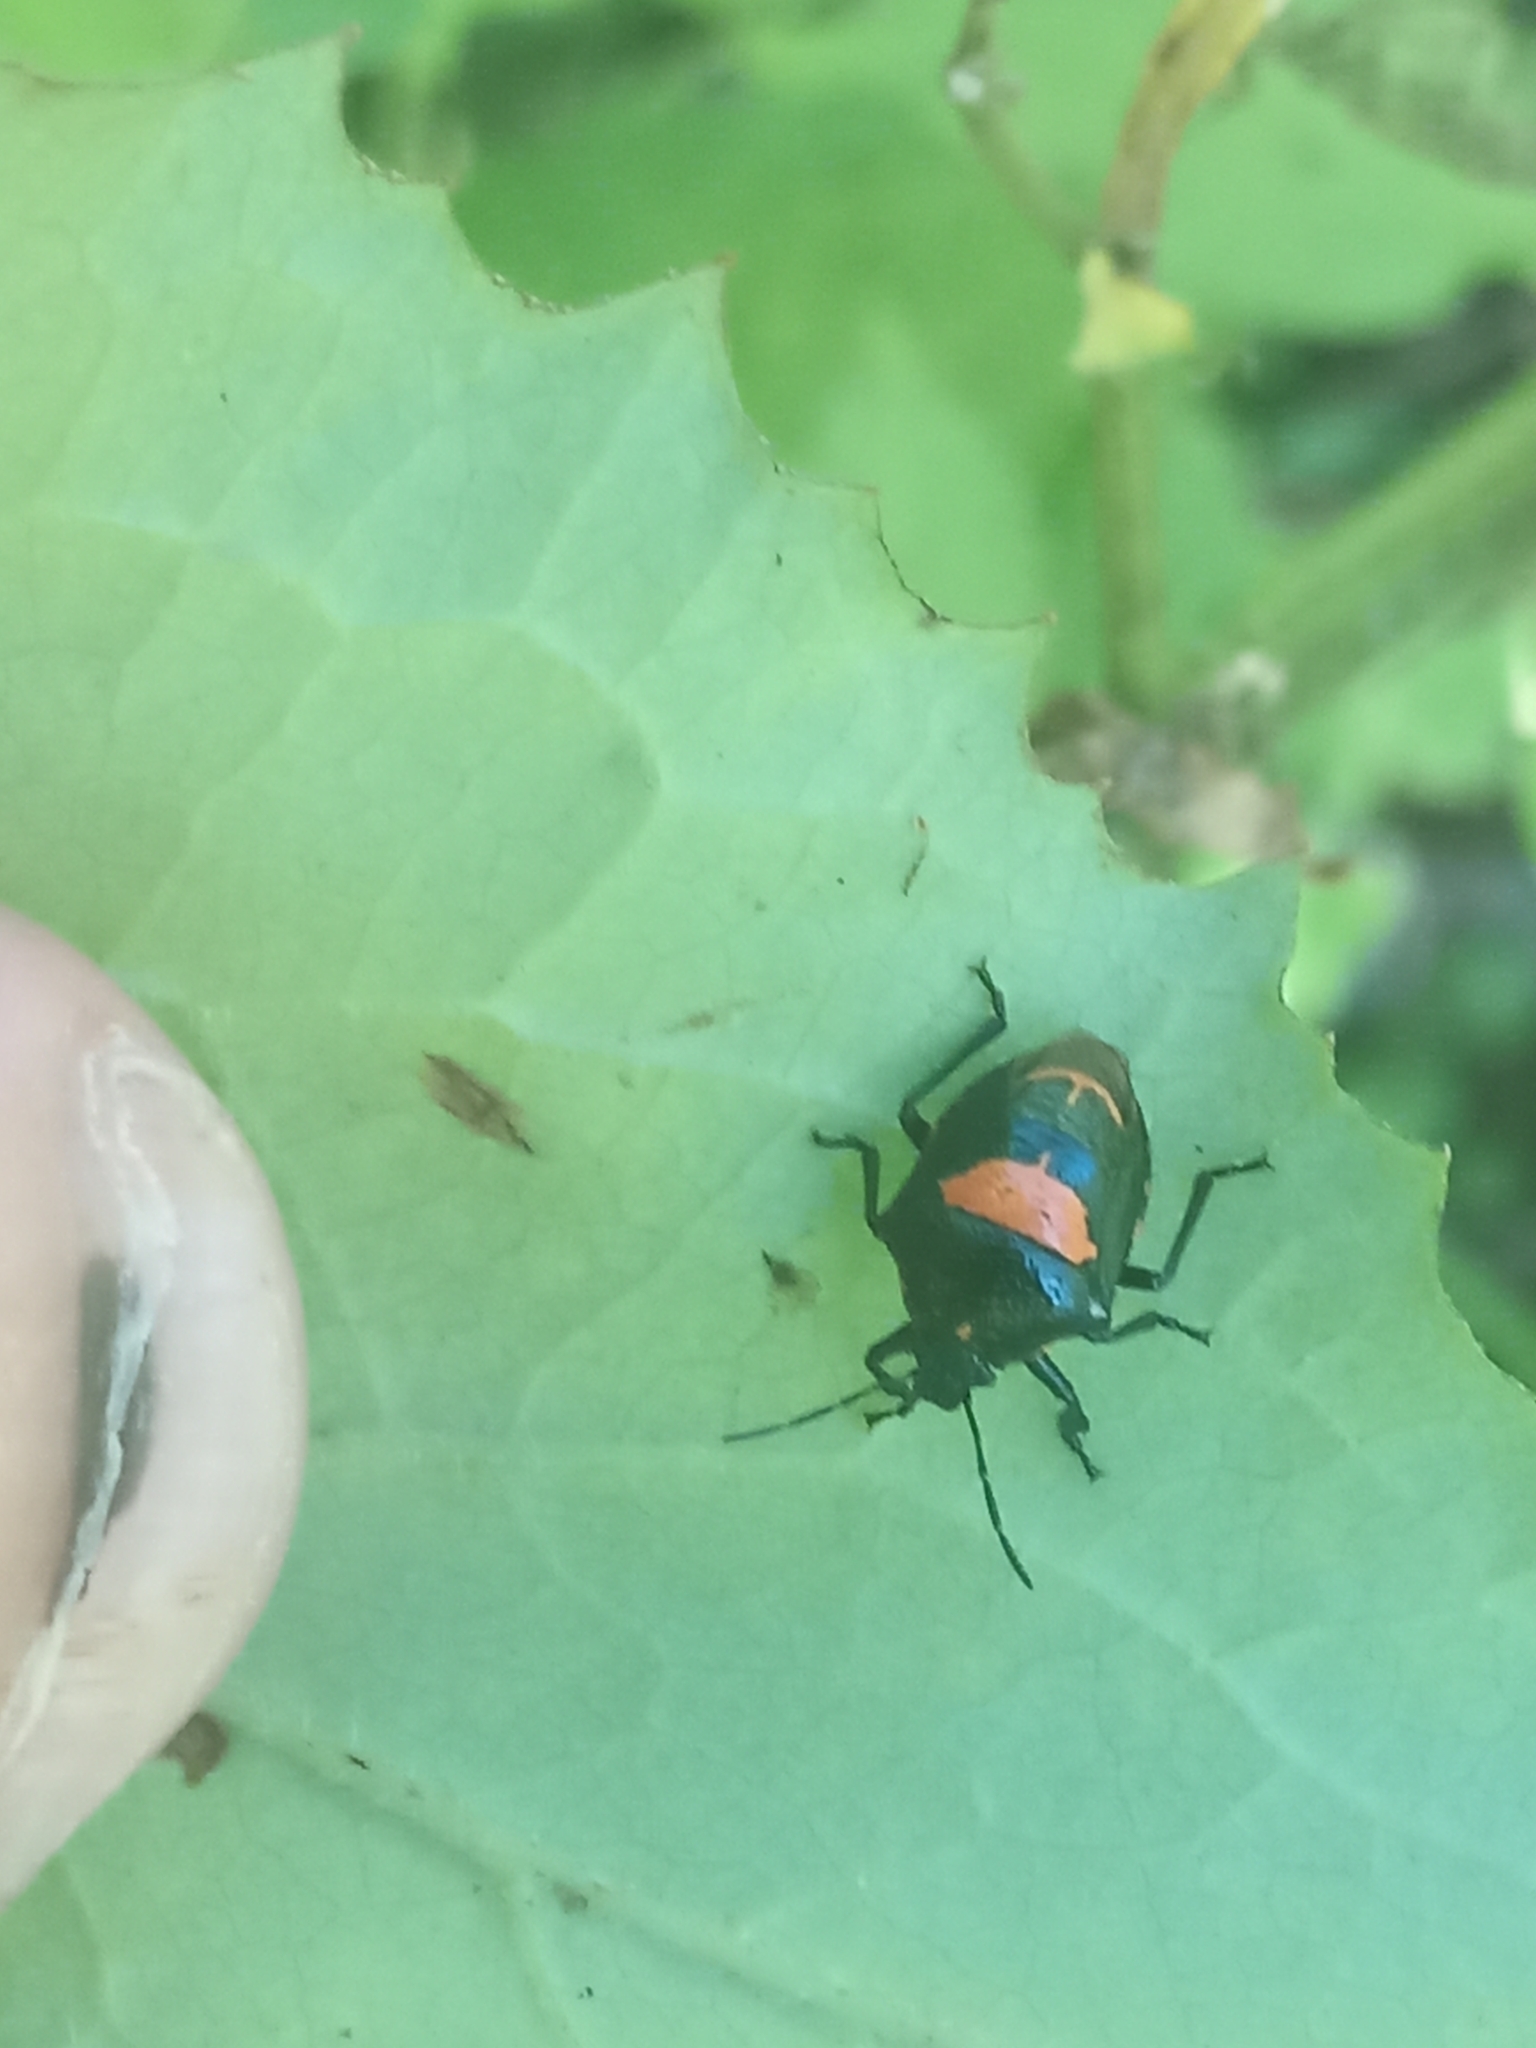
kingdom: Animalia
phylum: Arthropoda
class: Insecta
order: Hemiptera
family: Pentatomidae
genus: Stiretrus
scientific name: Stiretrus anchorago
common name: Anchor stink bug
